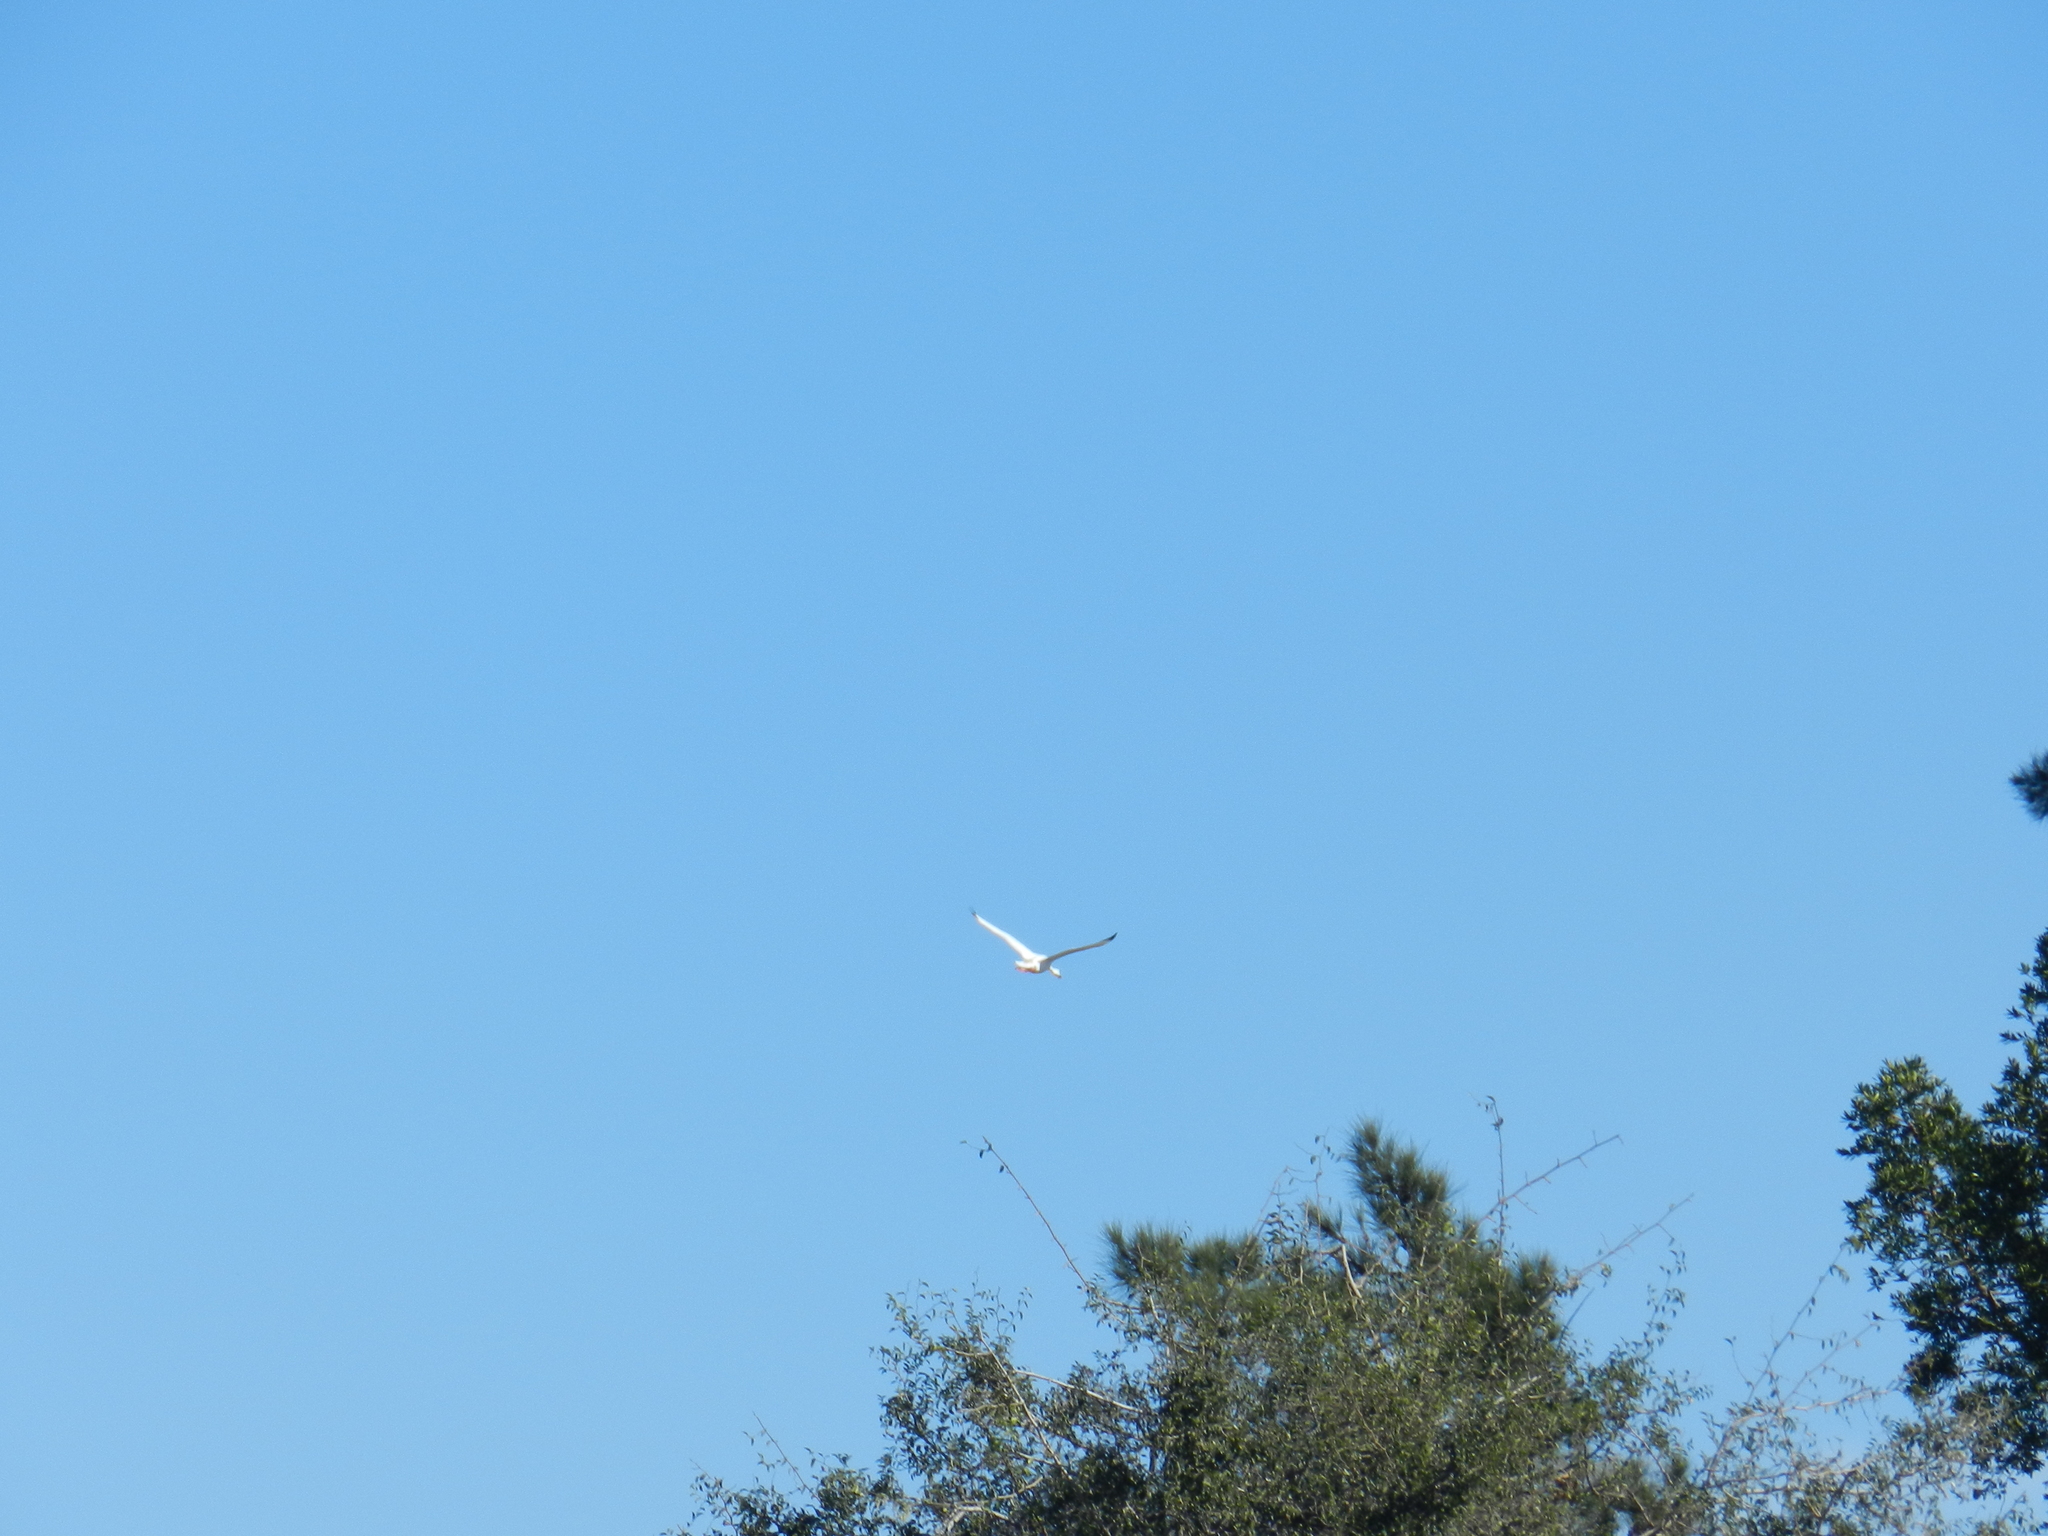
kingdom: Animalia
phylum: Chordata
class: Aves
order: Anseriformes
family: Anatidae
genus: Coscoroba
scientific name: Coscoroba coscoroba
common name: Coscoroba swan
